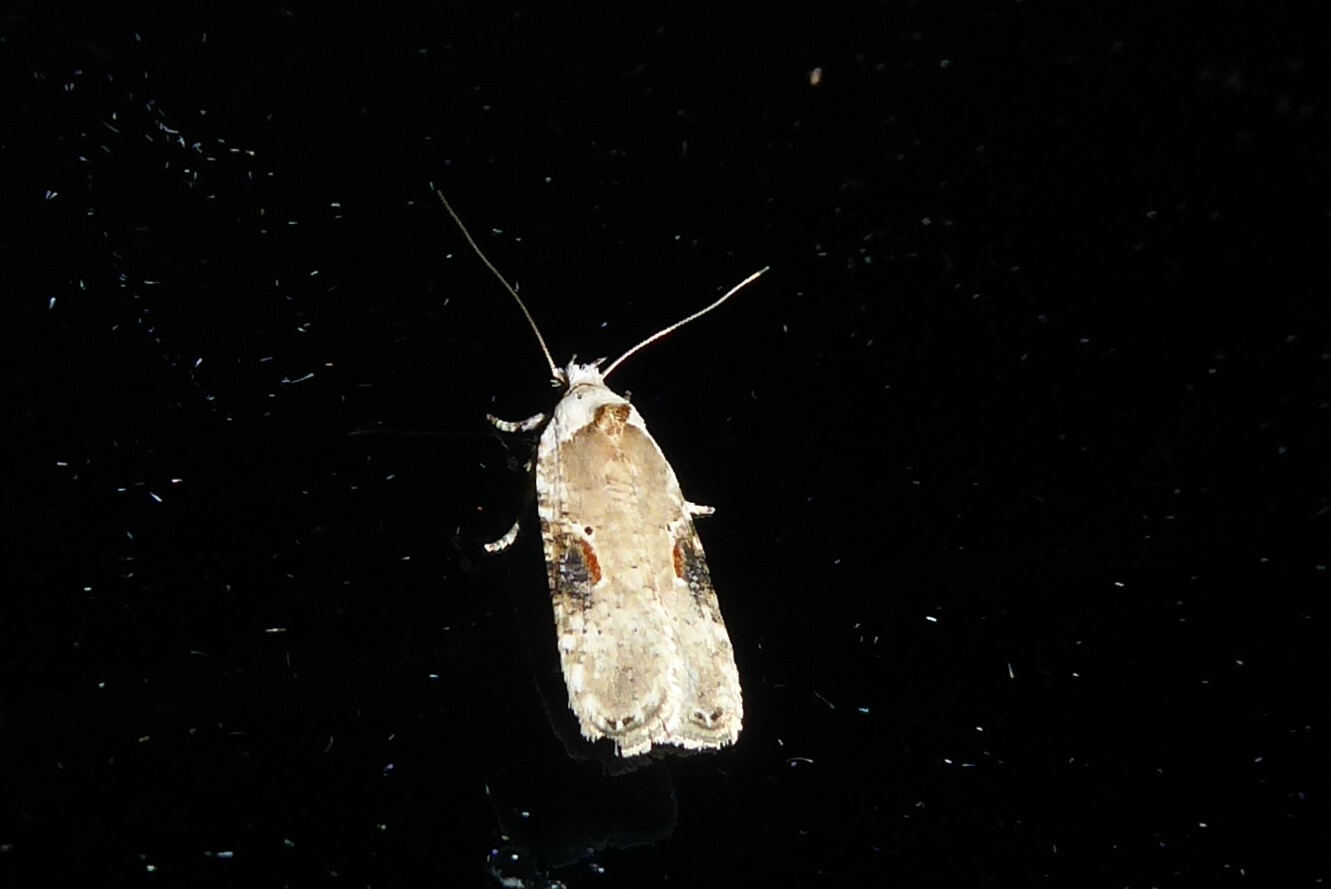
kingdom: Animalia
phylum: Arthropoda
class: Insecta
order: Lepidoptera
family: Depressariidae
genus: Agonopterix
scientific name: Agonopterix alstroemeriana
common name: Moth
